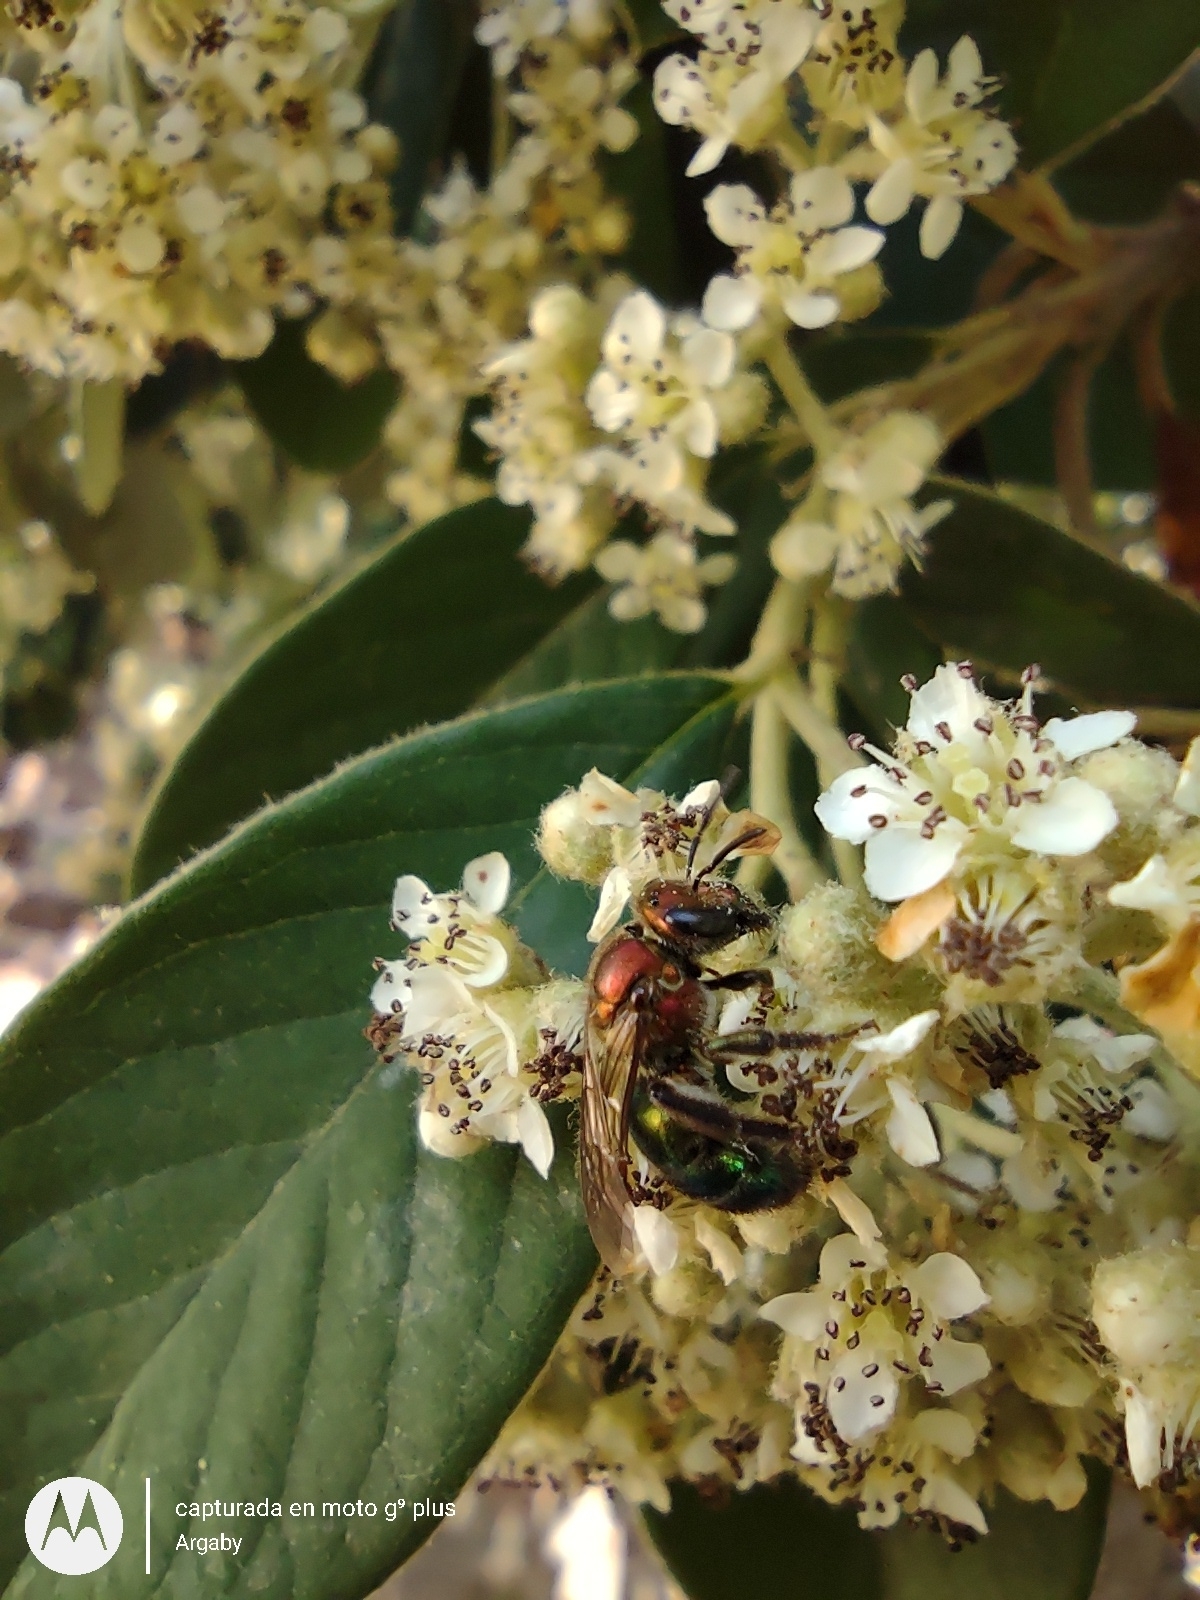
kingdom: Animalia
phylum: Arthropoda
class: Insecta
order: Hymenoptera
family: Halictidae
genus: Augochloropsis
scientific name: Augochloropsis tupacamaru
